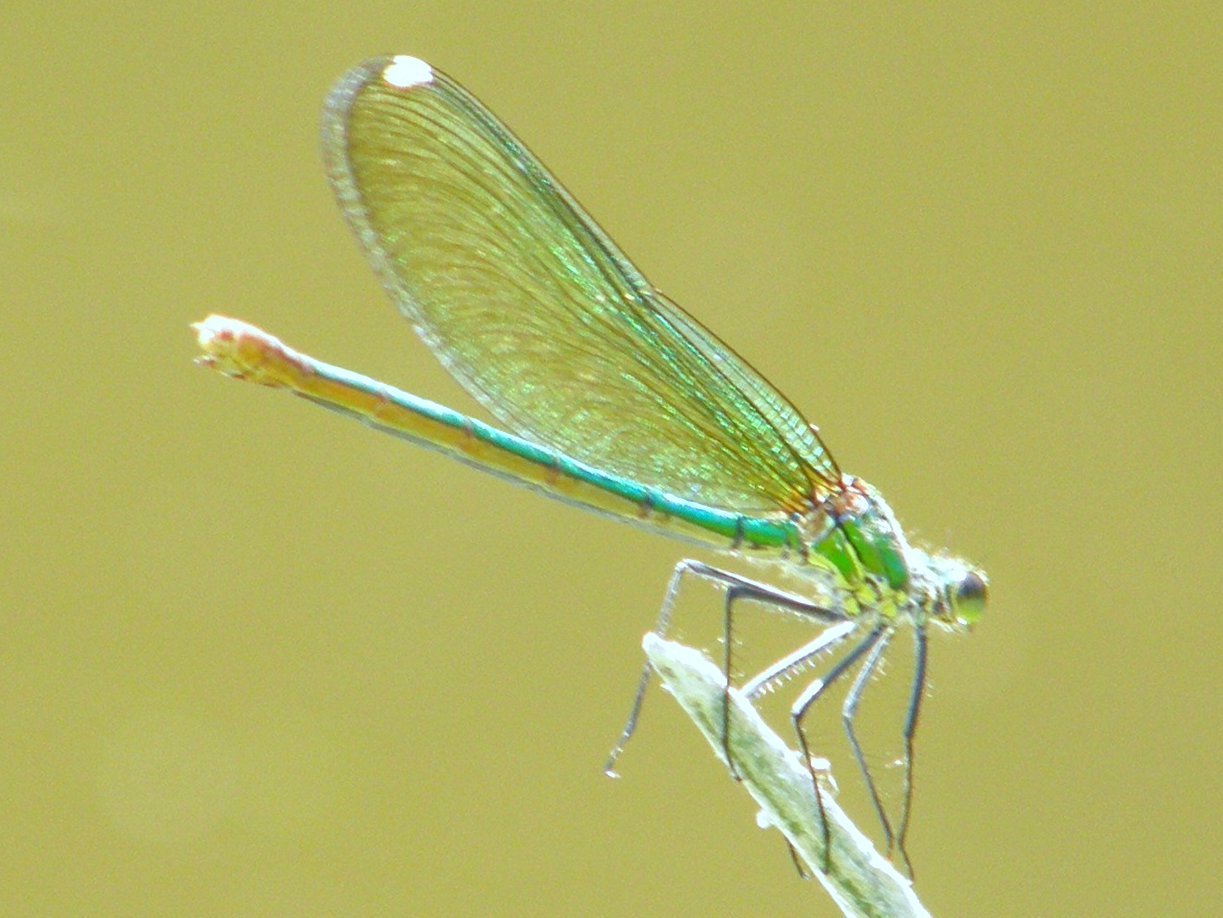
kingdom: Animalia
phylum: Arthropoda
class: Insecta
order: Odonata
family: Calopterygidae
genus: Calopteryx
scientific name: Calopteryx xanthostoma
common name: Western demoiselle
